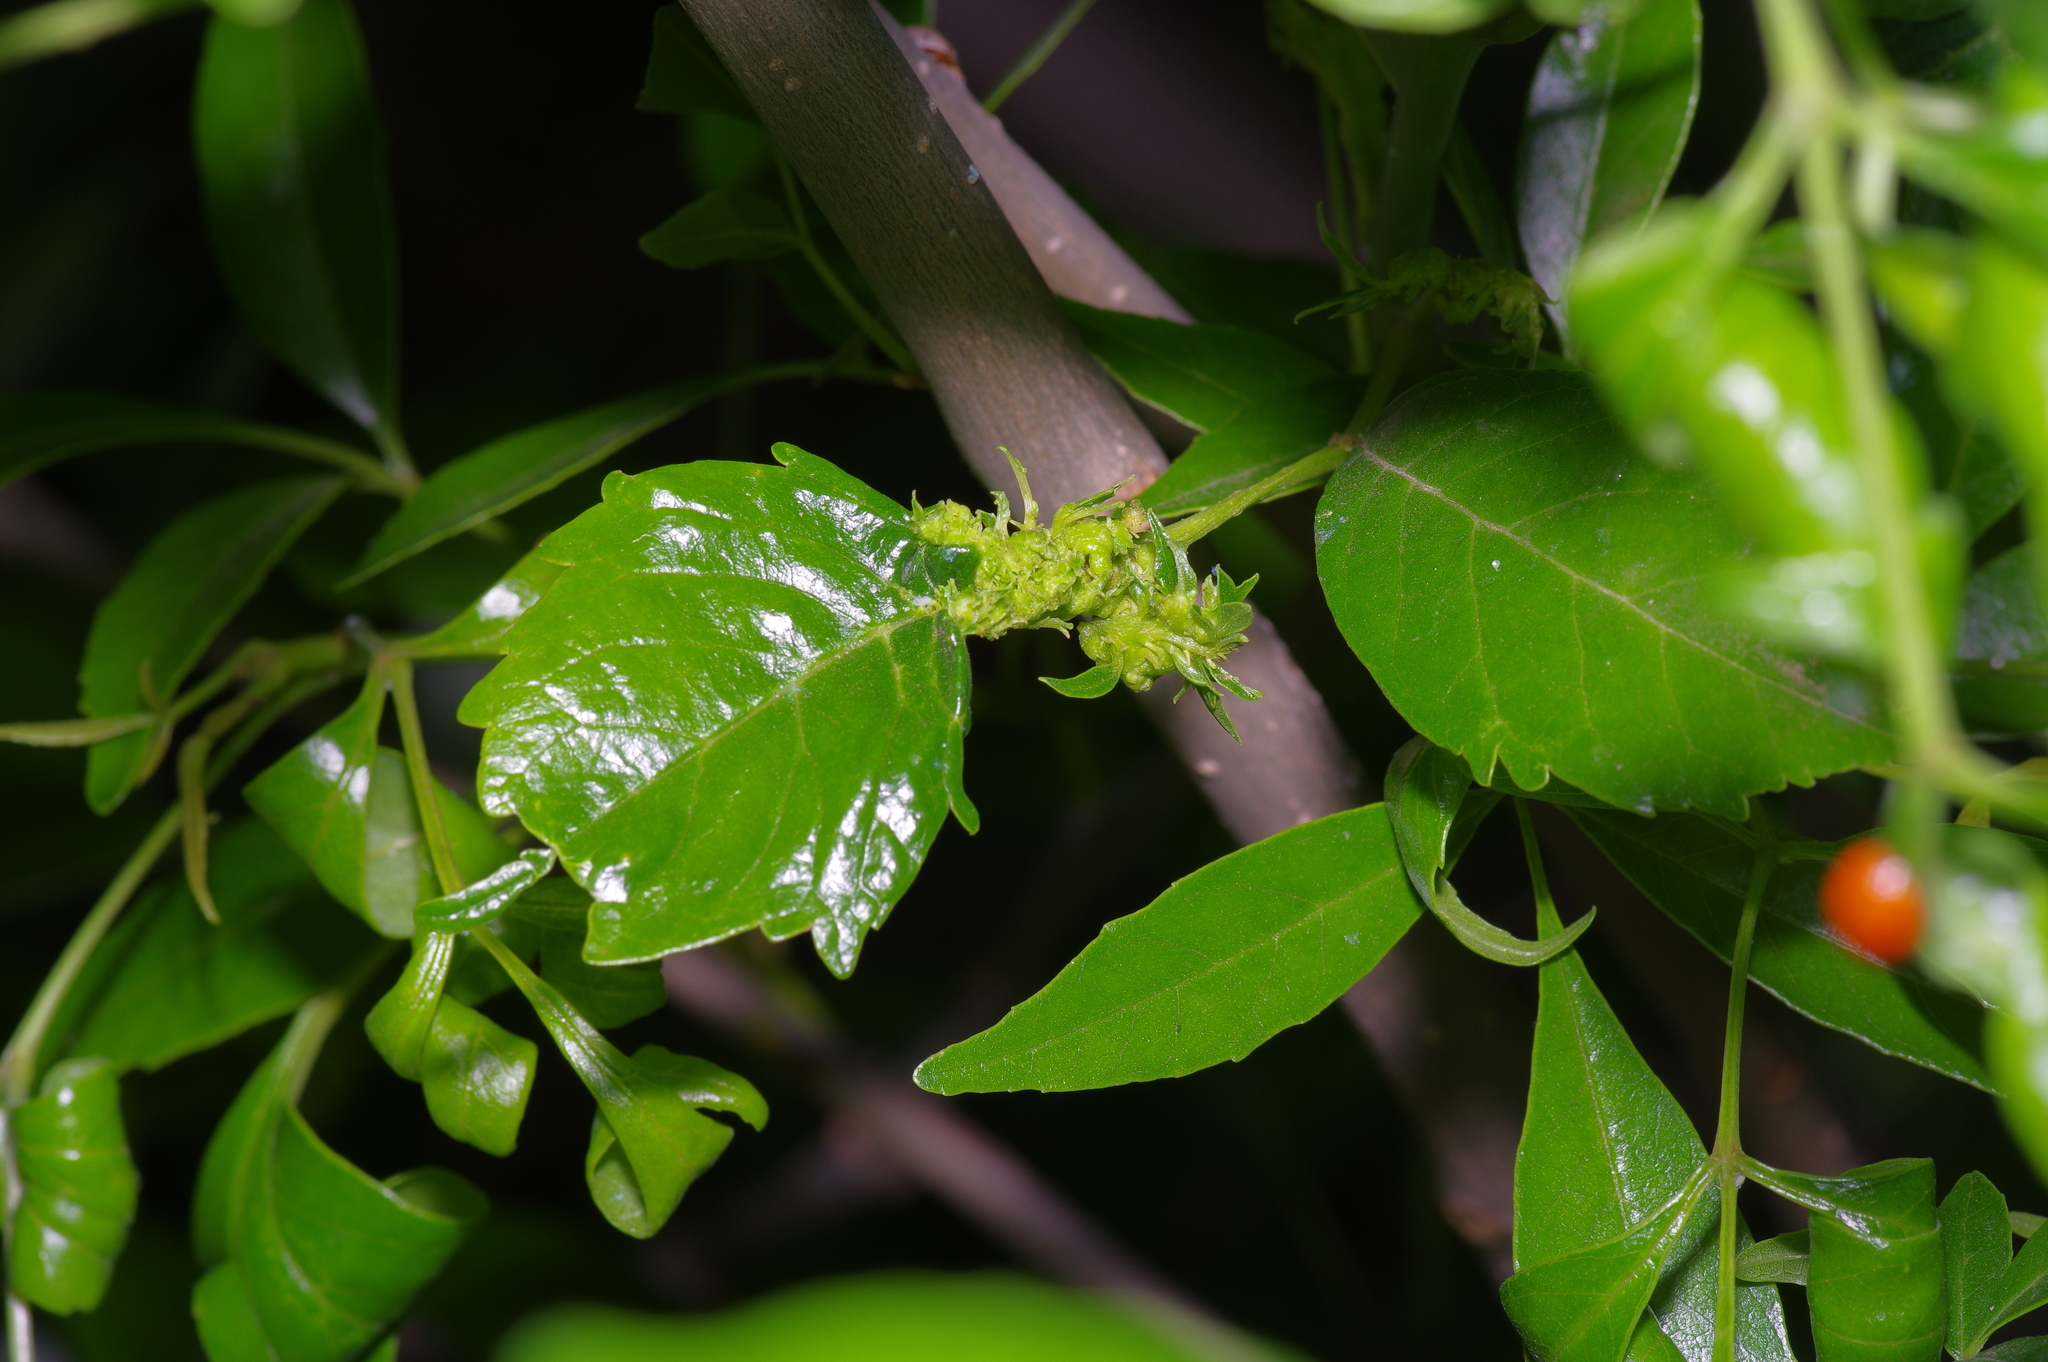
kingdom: Bacteria
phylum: Firmicutes
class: Bacilli
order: Acholeplasmatales
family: Acholeplasmataceae
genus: Phytoplasma
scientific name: Phytoplasma
